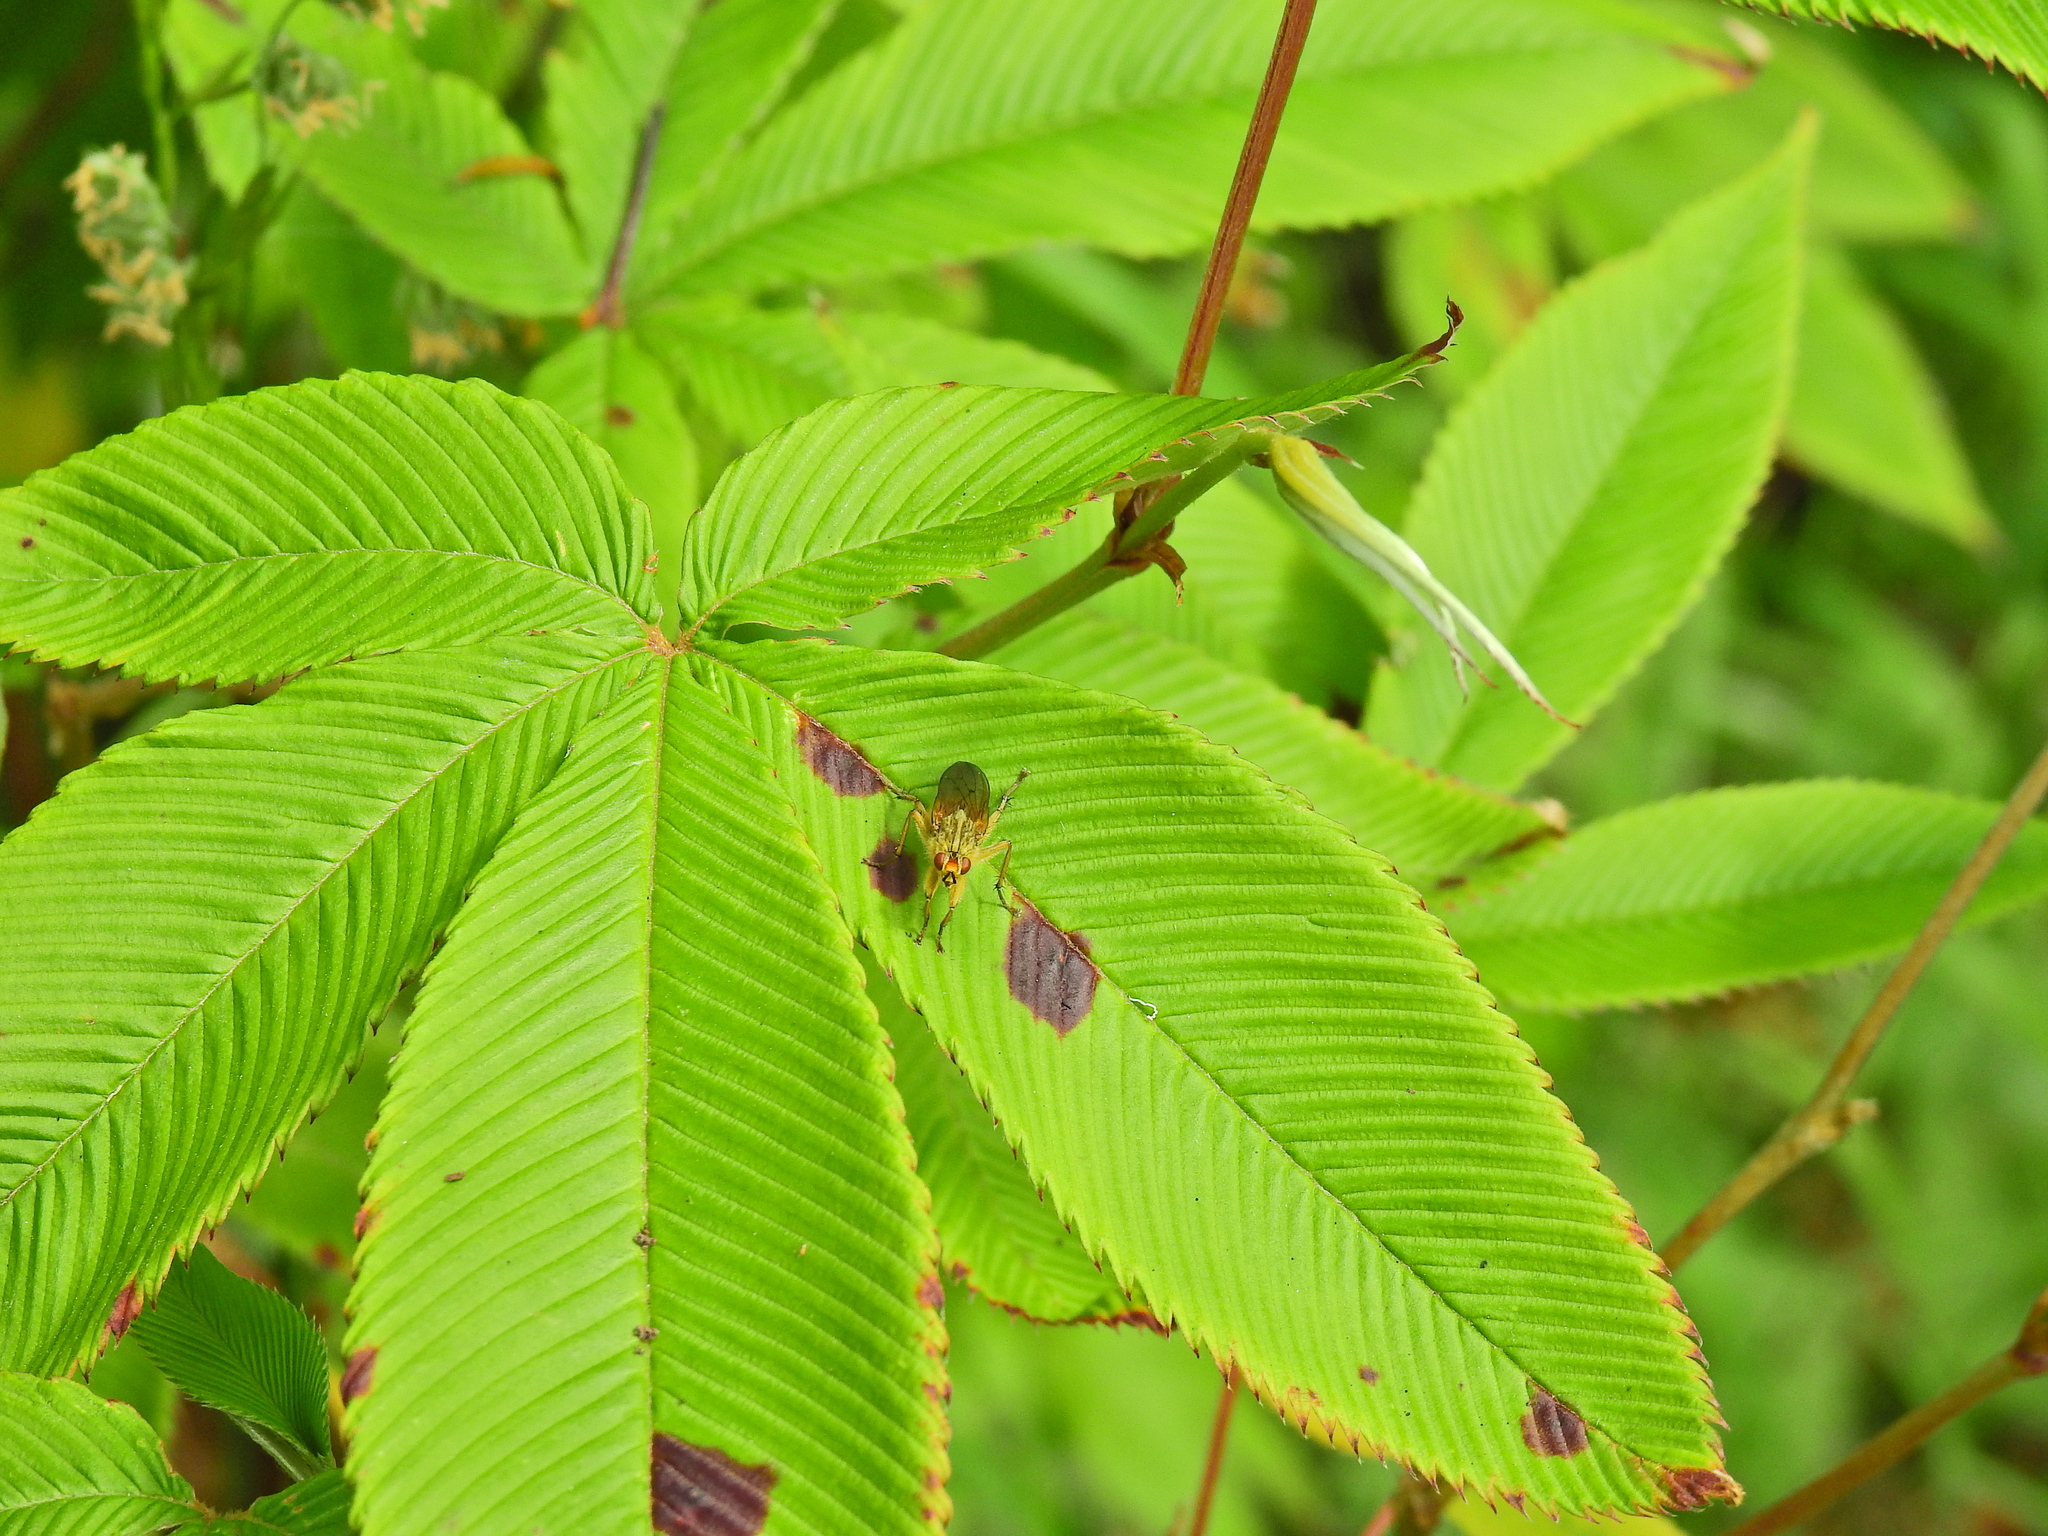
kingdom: Animalia
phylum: Arthropoda
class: Insecta
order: Diptera
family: Scathophagidae
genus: Scathophaga
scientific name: Scathophaga stercoraria
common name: Yellow dung fly
